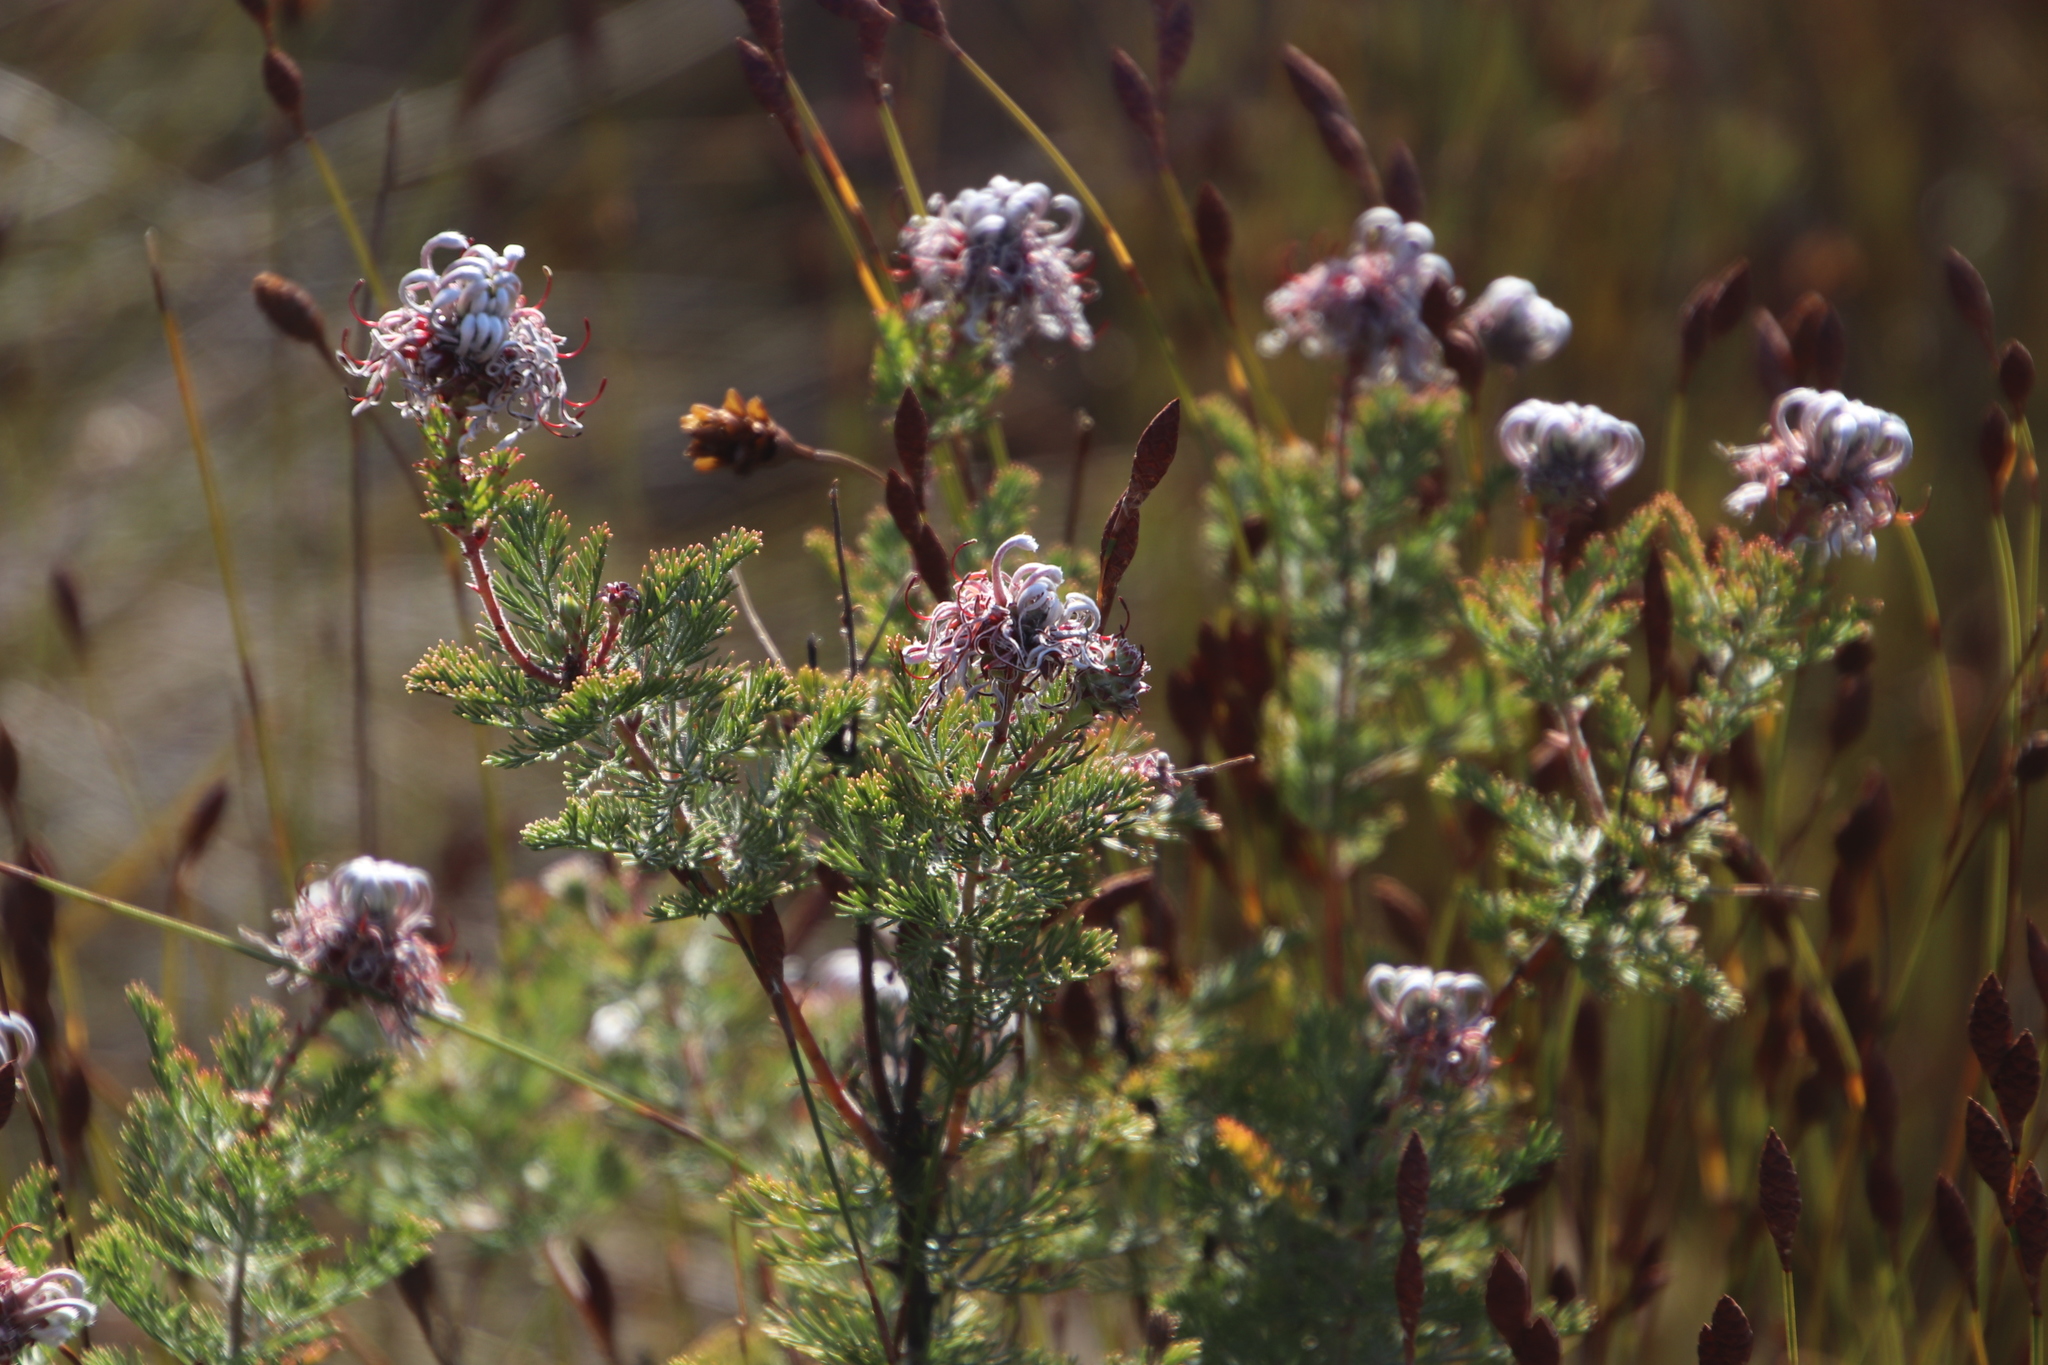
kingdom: Plantae
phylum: Tracheophyta
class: Magnoliopsida
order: Proteales
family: Proteaceae
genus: Serruria
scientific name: Serruria pedunculata
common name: Fan-leaf spiderhead
